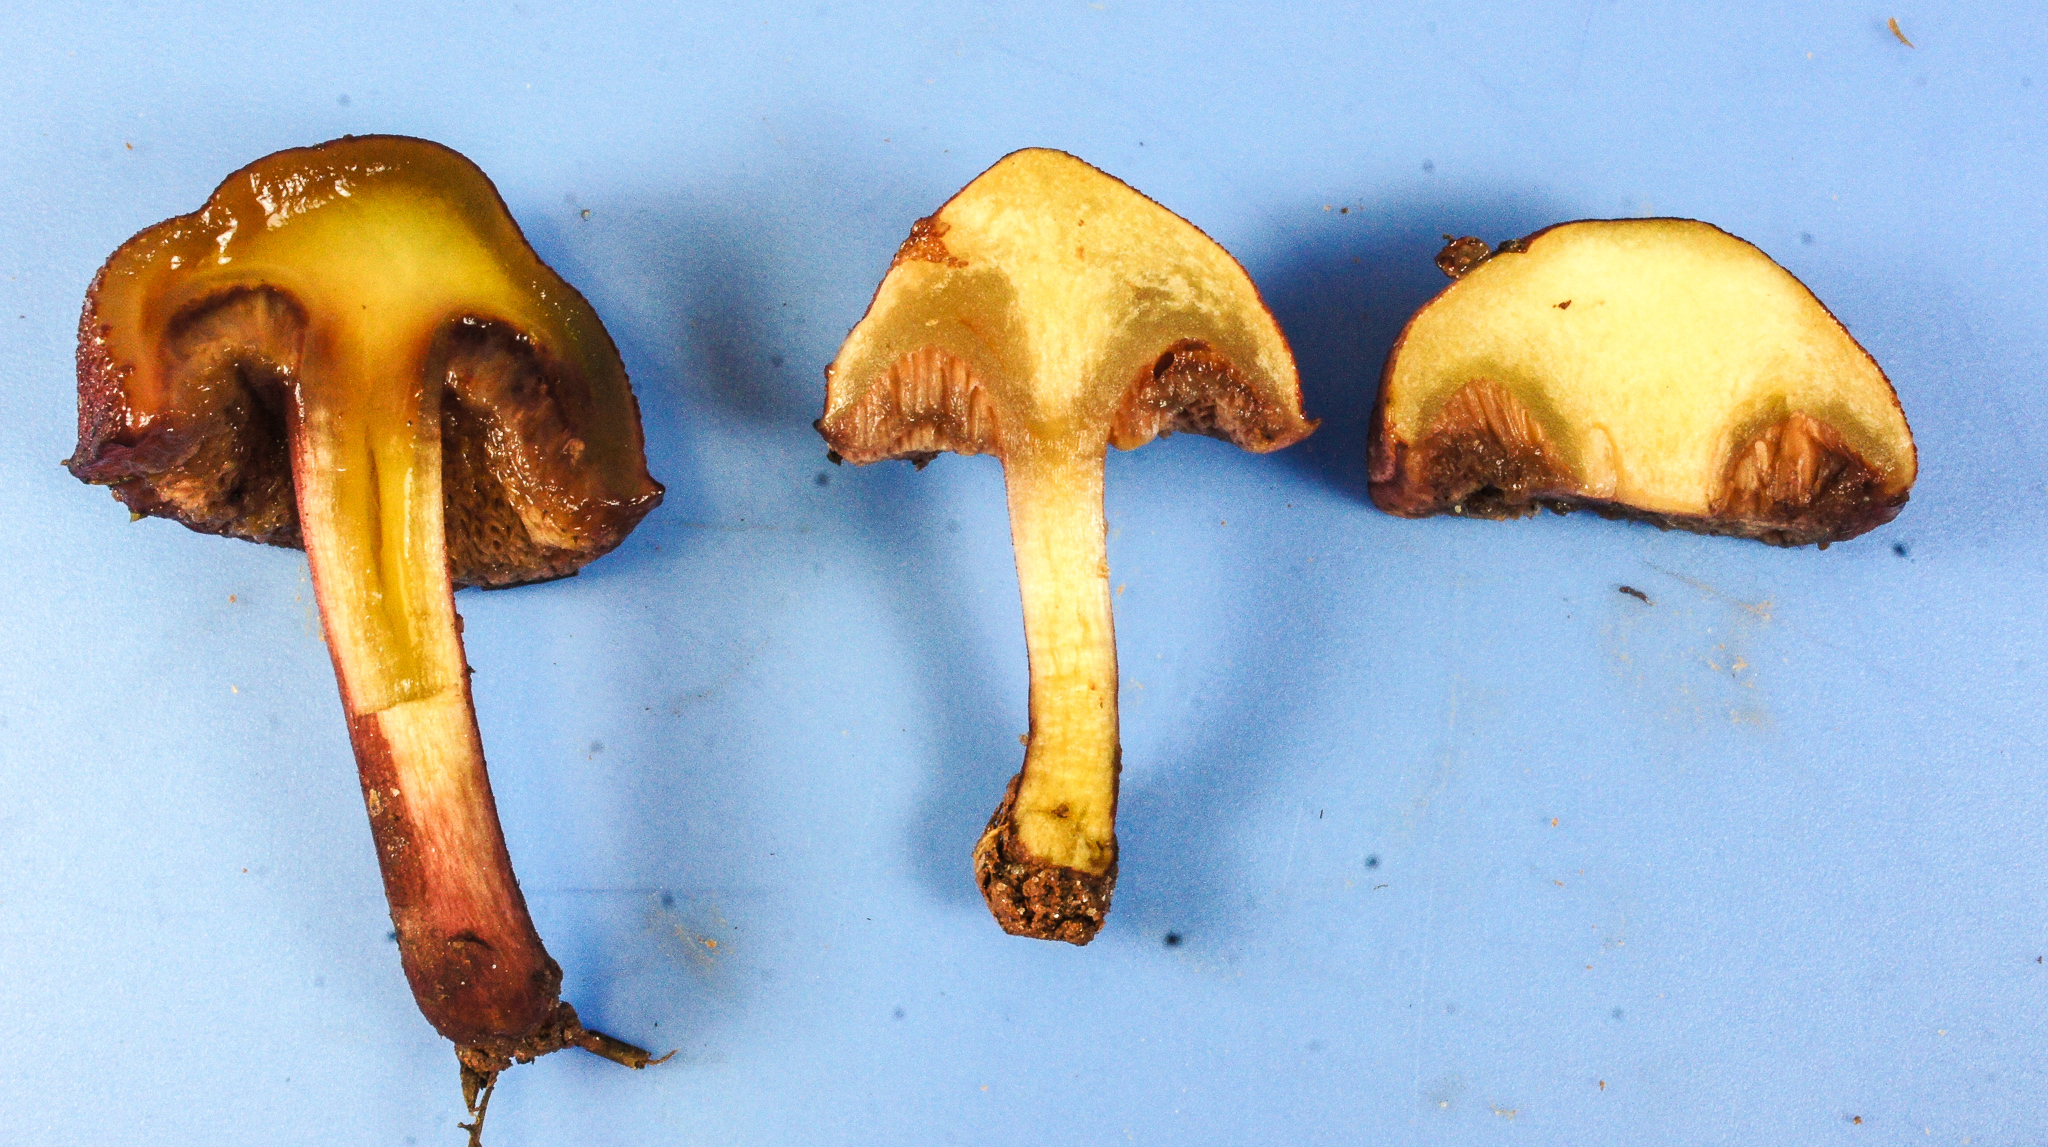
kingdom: Fungi
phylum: Basidiomycota
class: Agaricomycetes
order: Boletales
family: Boletaceae
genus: Chalciporus
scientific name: Chalciporus pseudorubinellus
